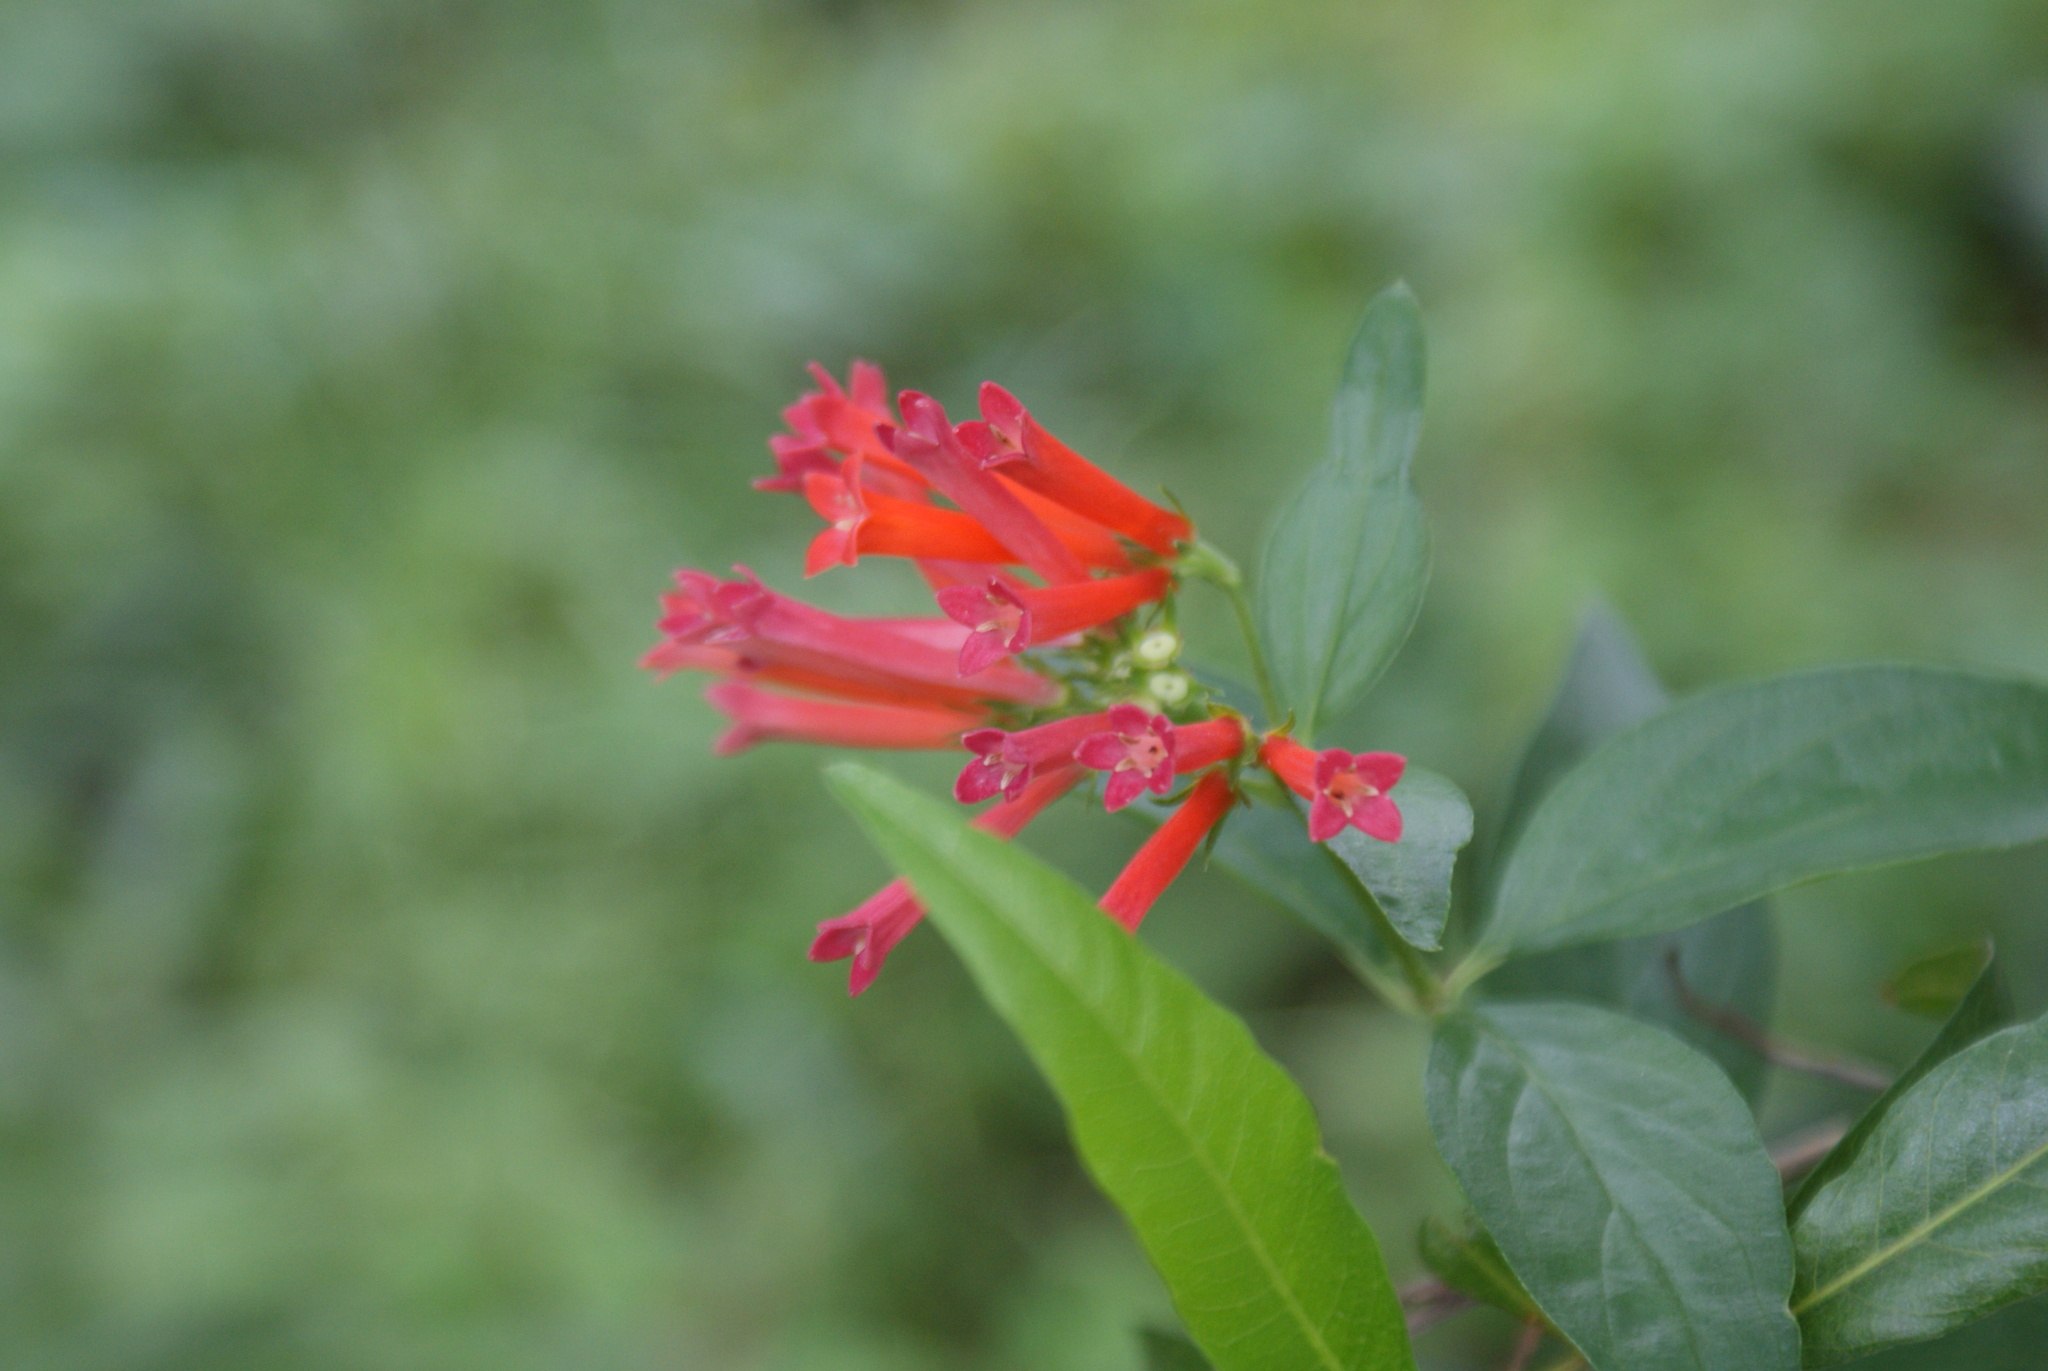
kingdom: Plantae
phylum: Tracheophyta
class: Magnoliopsida
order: Gentianales
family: Rubiaceae
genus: Bouvardia
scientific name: Bouvardia ternifolia
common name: Scarlet bouvardia
